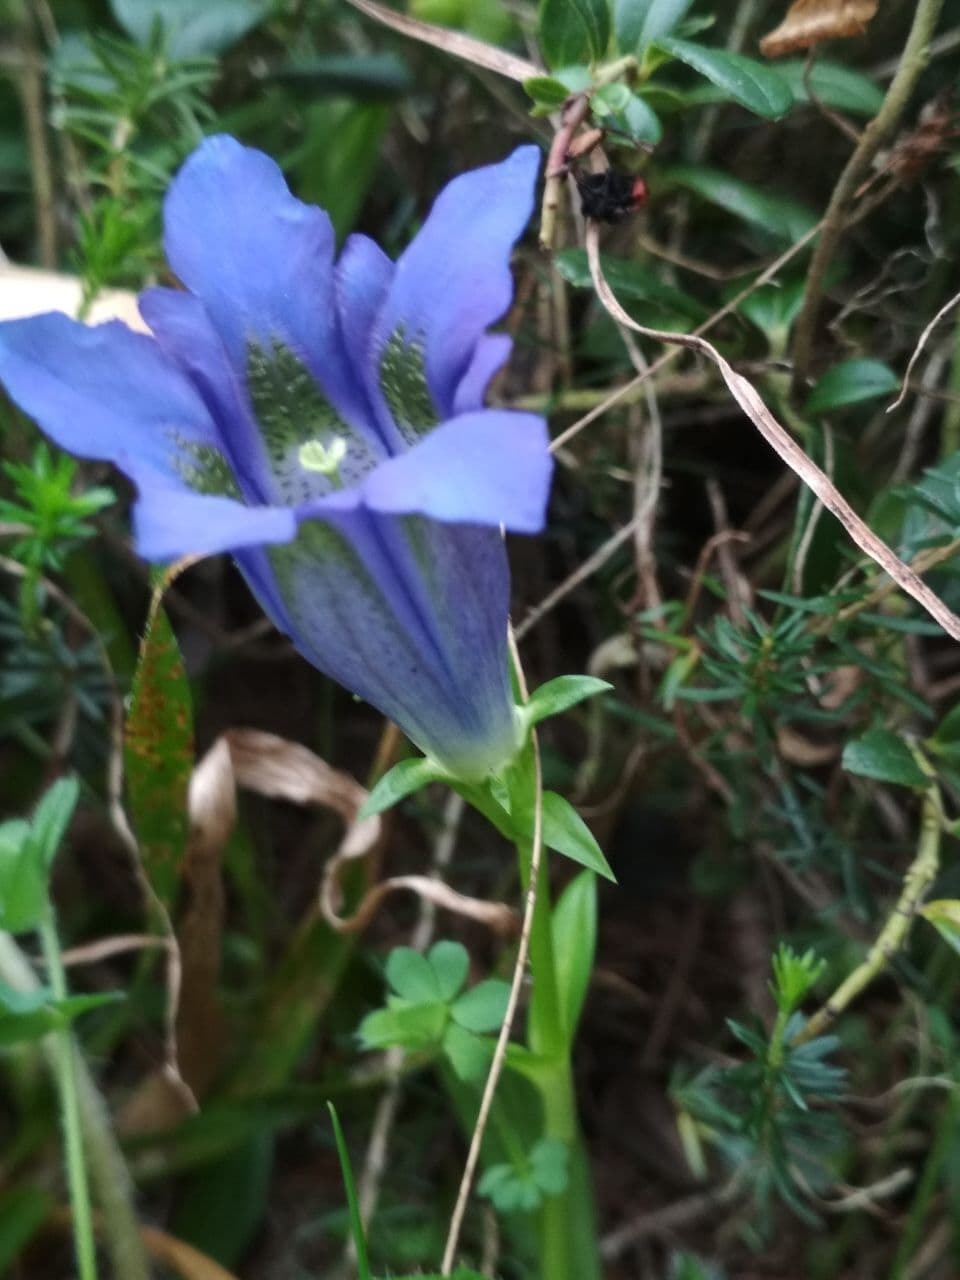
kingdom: Plantae
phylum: Tracheophyta
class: Magnoliopsida
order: Gentianales
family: Gentianaceae
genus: Gentiana
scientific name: Gentiana acaulis
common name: Trumpet gentian
